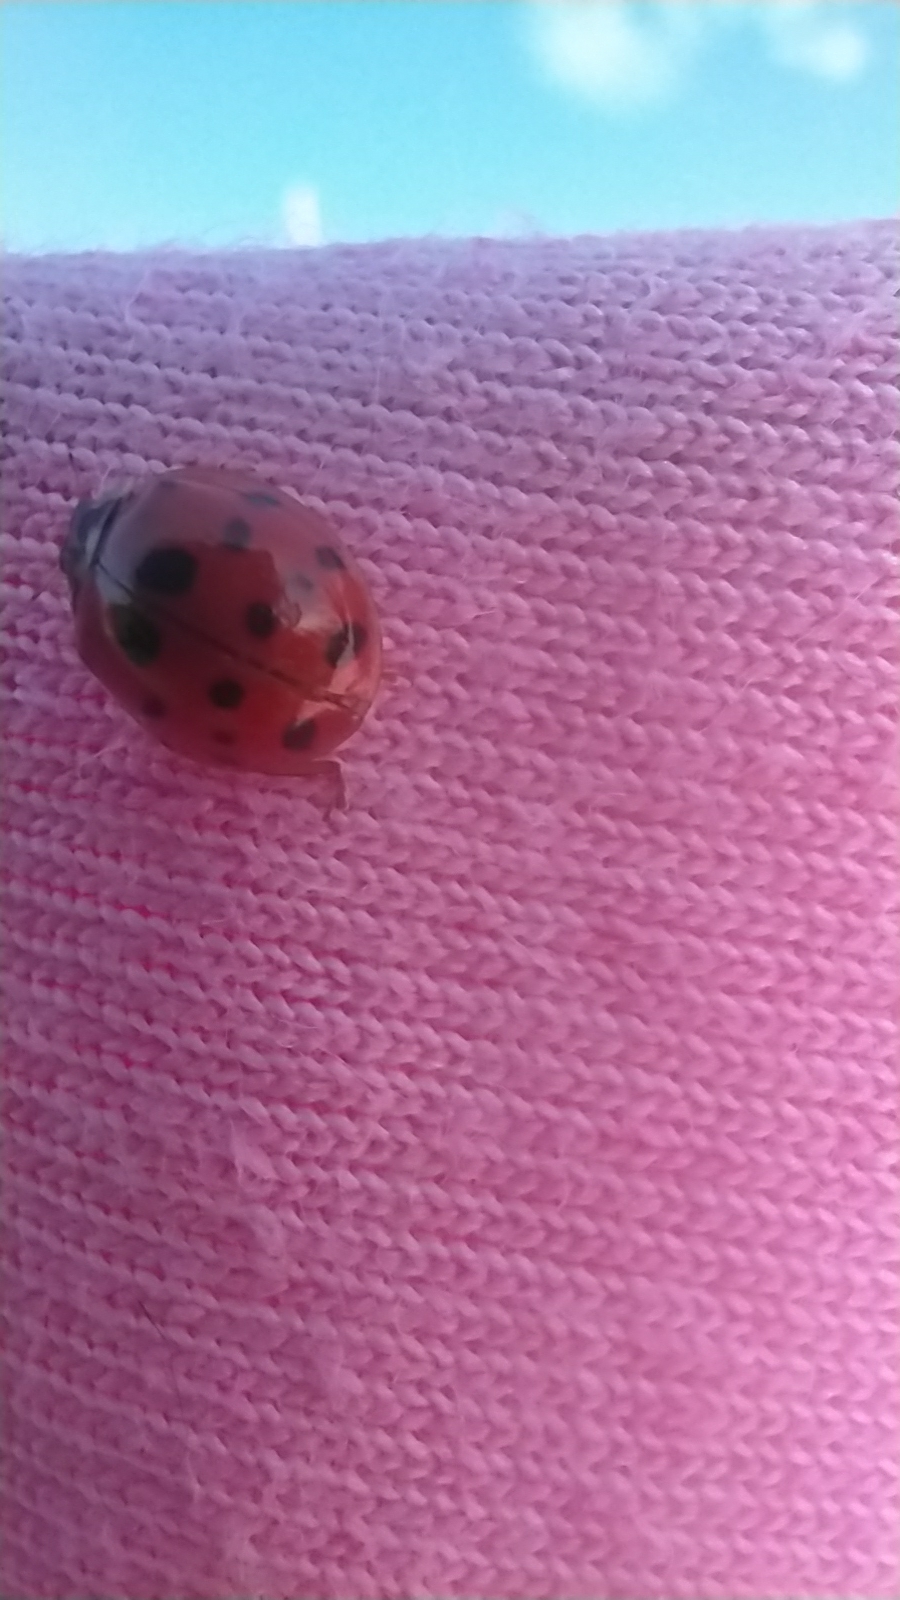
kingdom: Animalia
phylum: Arthropoda
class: Insecta
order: Coleoptera
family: Coccinellidae
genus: Harmonia
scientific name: Harmonia axyridis
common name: Harlequin ladybird
